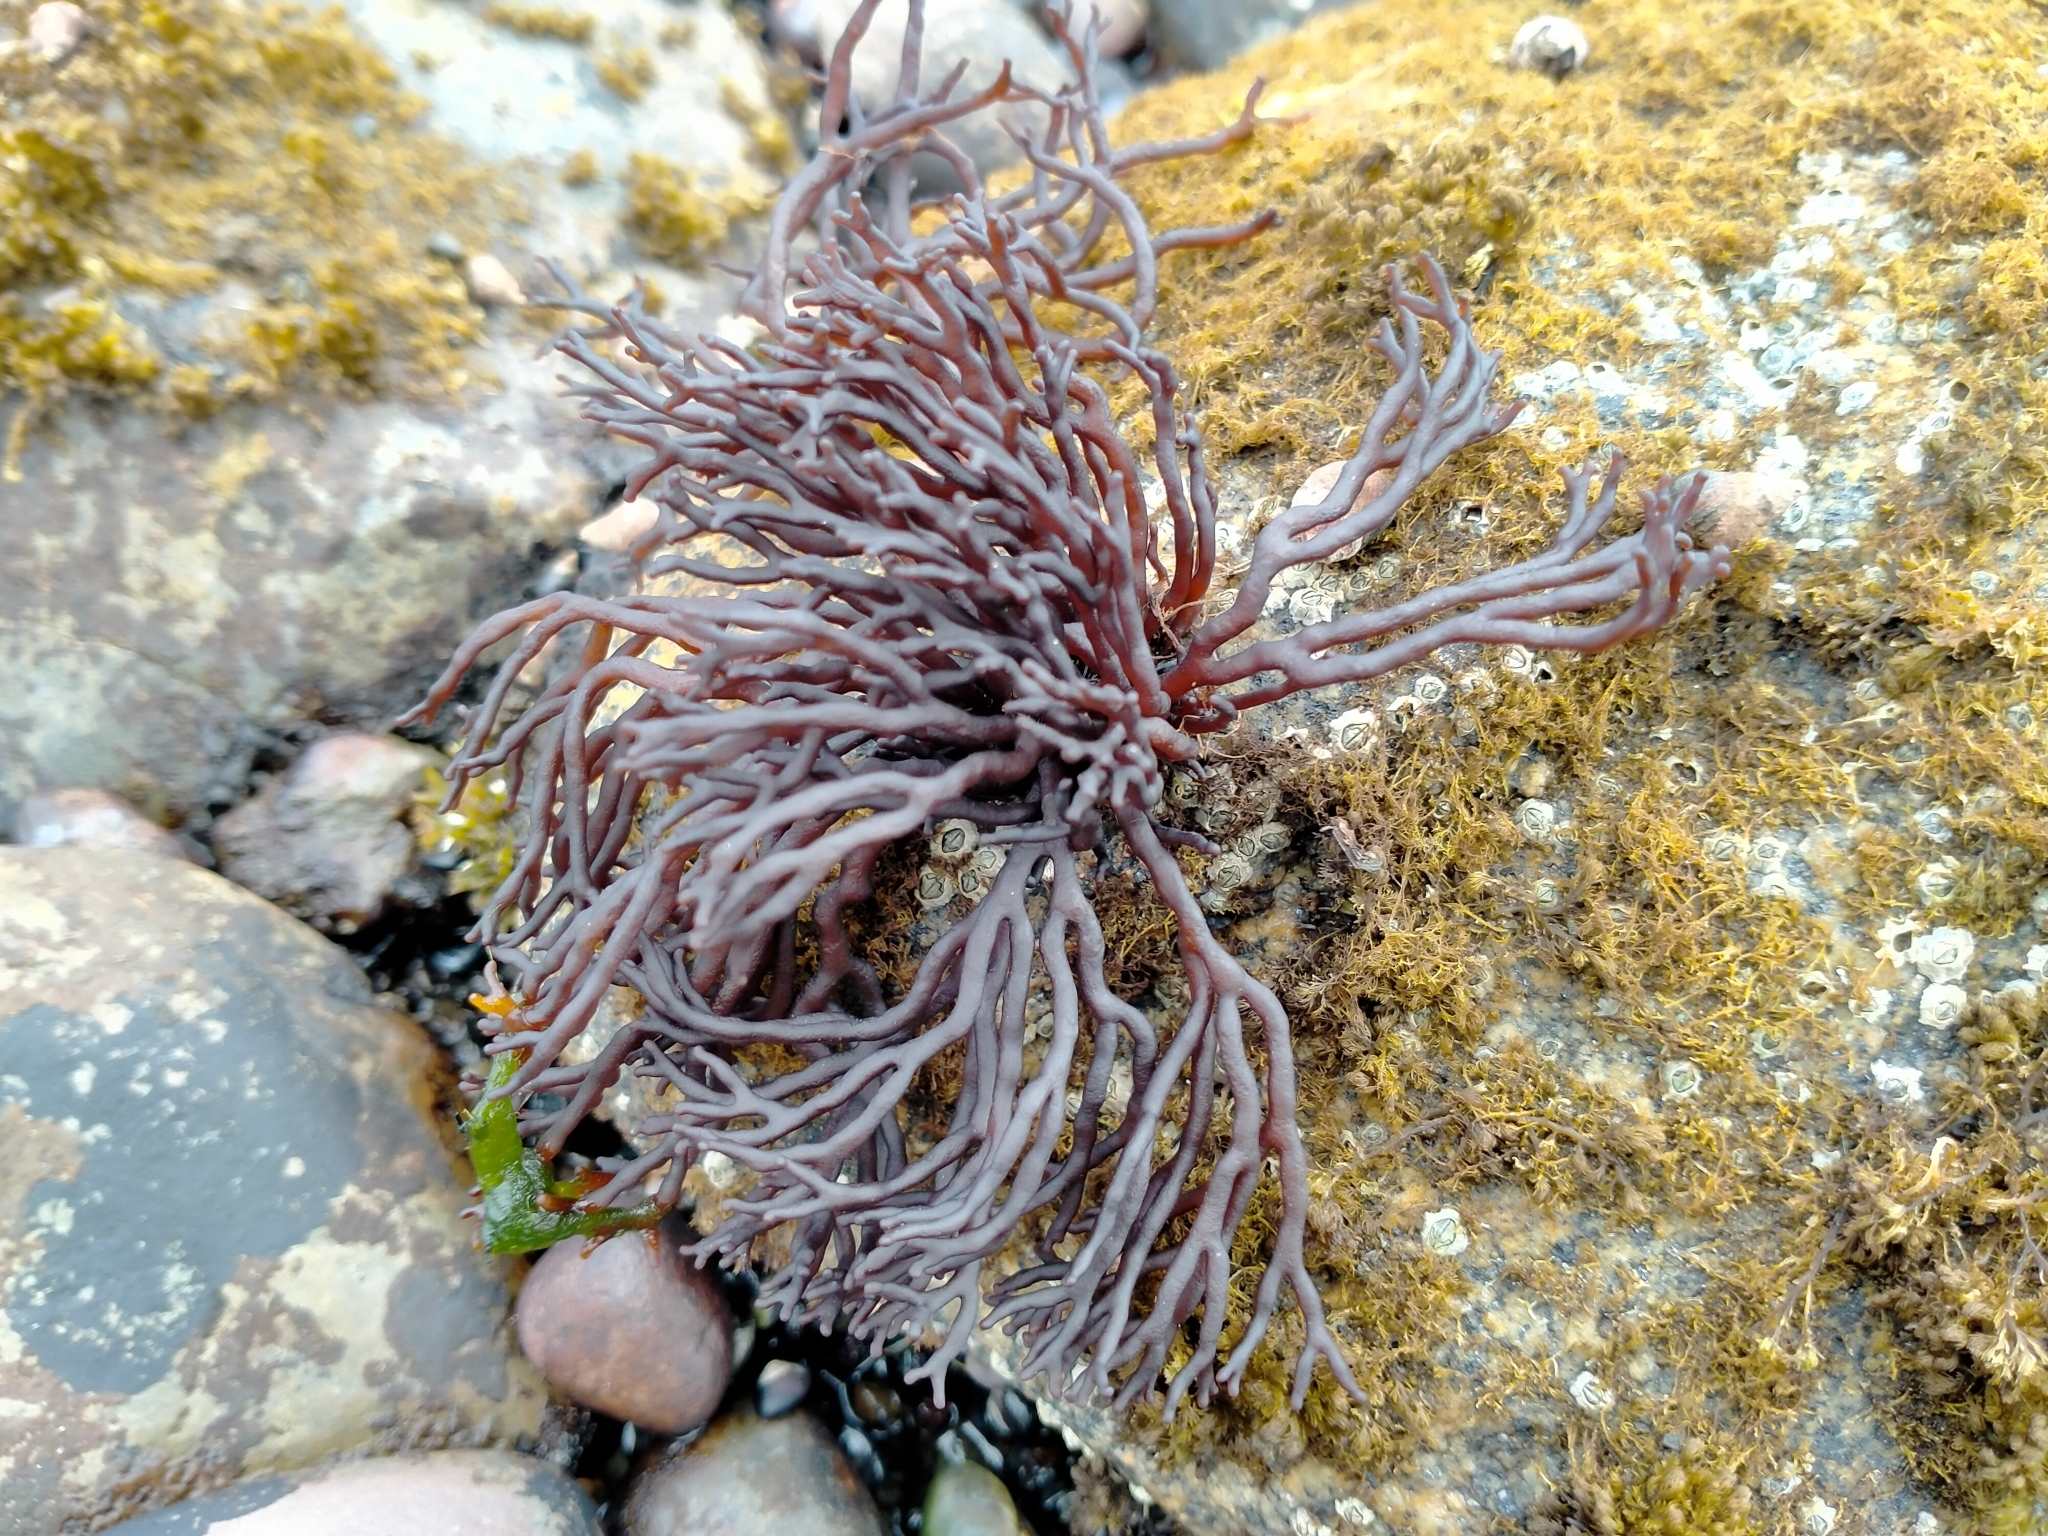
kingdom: Plantae
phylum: Rhodophyta
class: Florideophyceae
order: Hildenbrandiales
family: Hildenbrandiaceae
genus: Apophlaea
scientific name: Apophlaea lyallii
